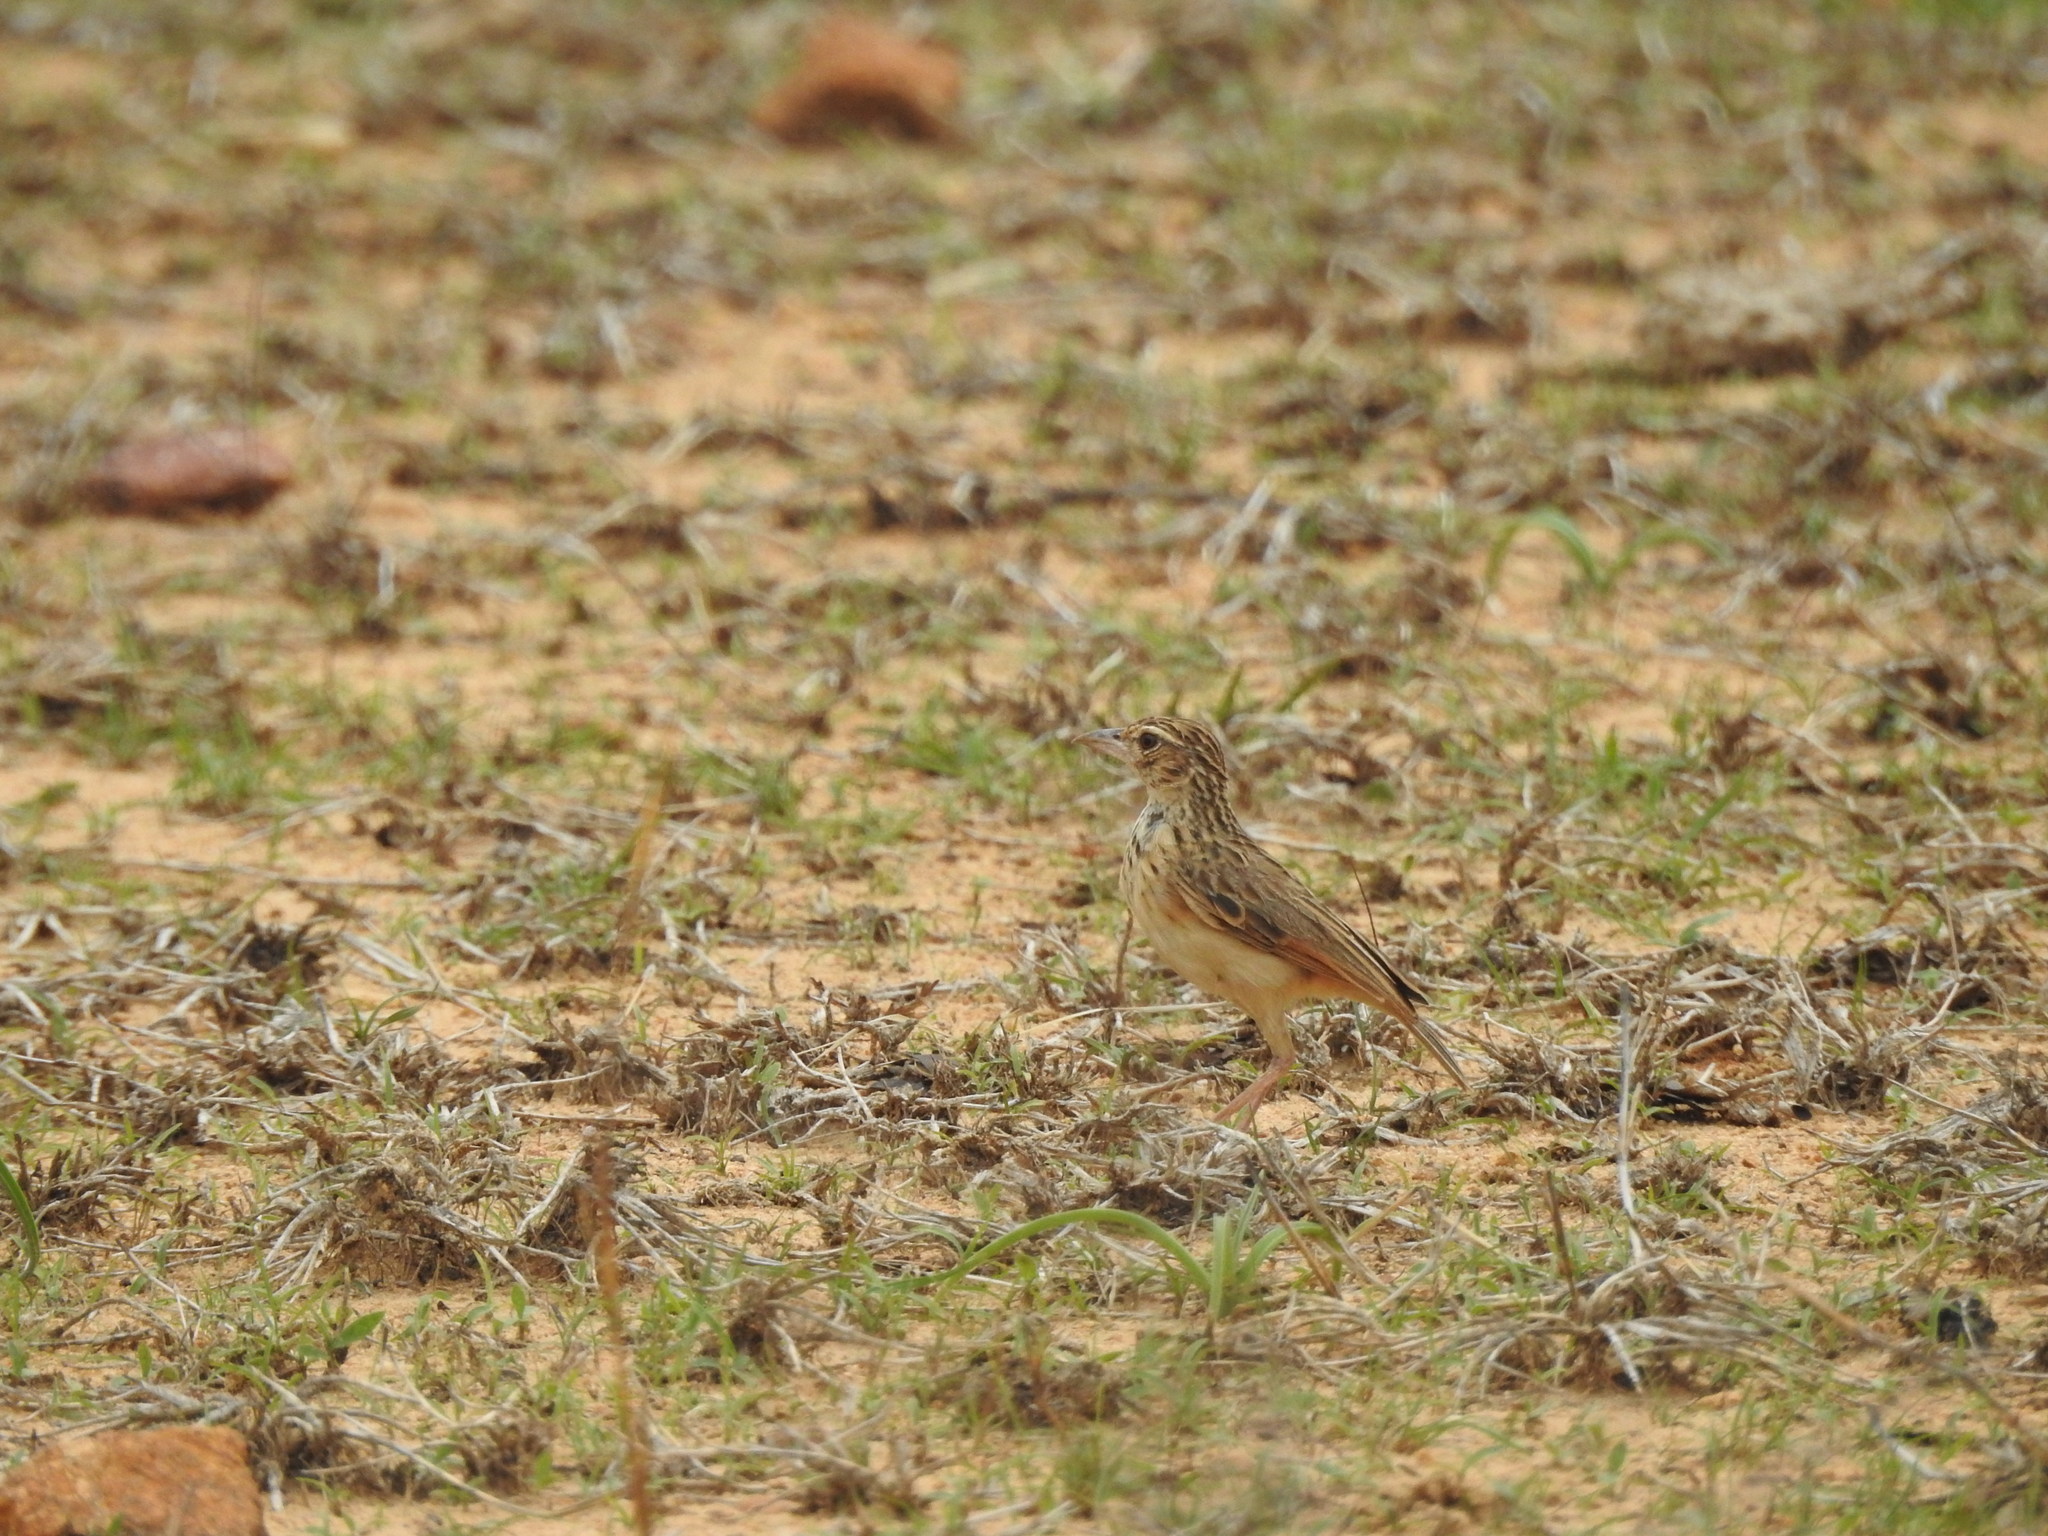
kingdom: Animalia
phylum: Chordata
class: Aves
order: Passeriformes
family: Alaudidae
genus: Mirafra
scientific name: Mirafra affinis
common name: Jerdon's bushlark
